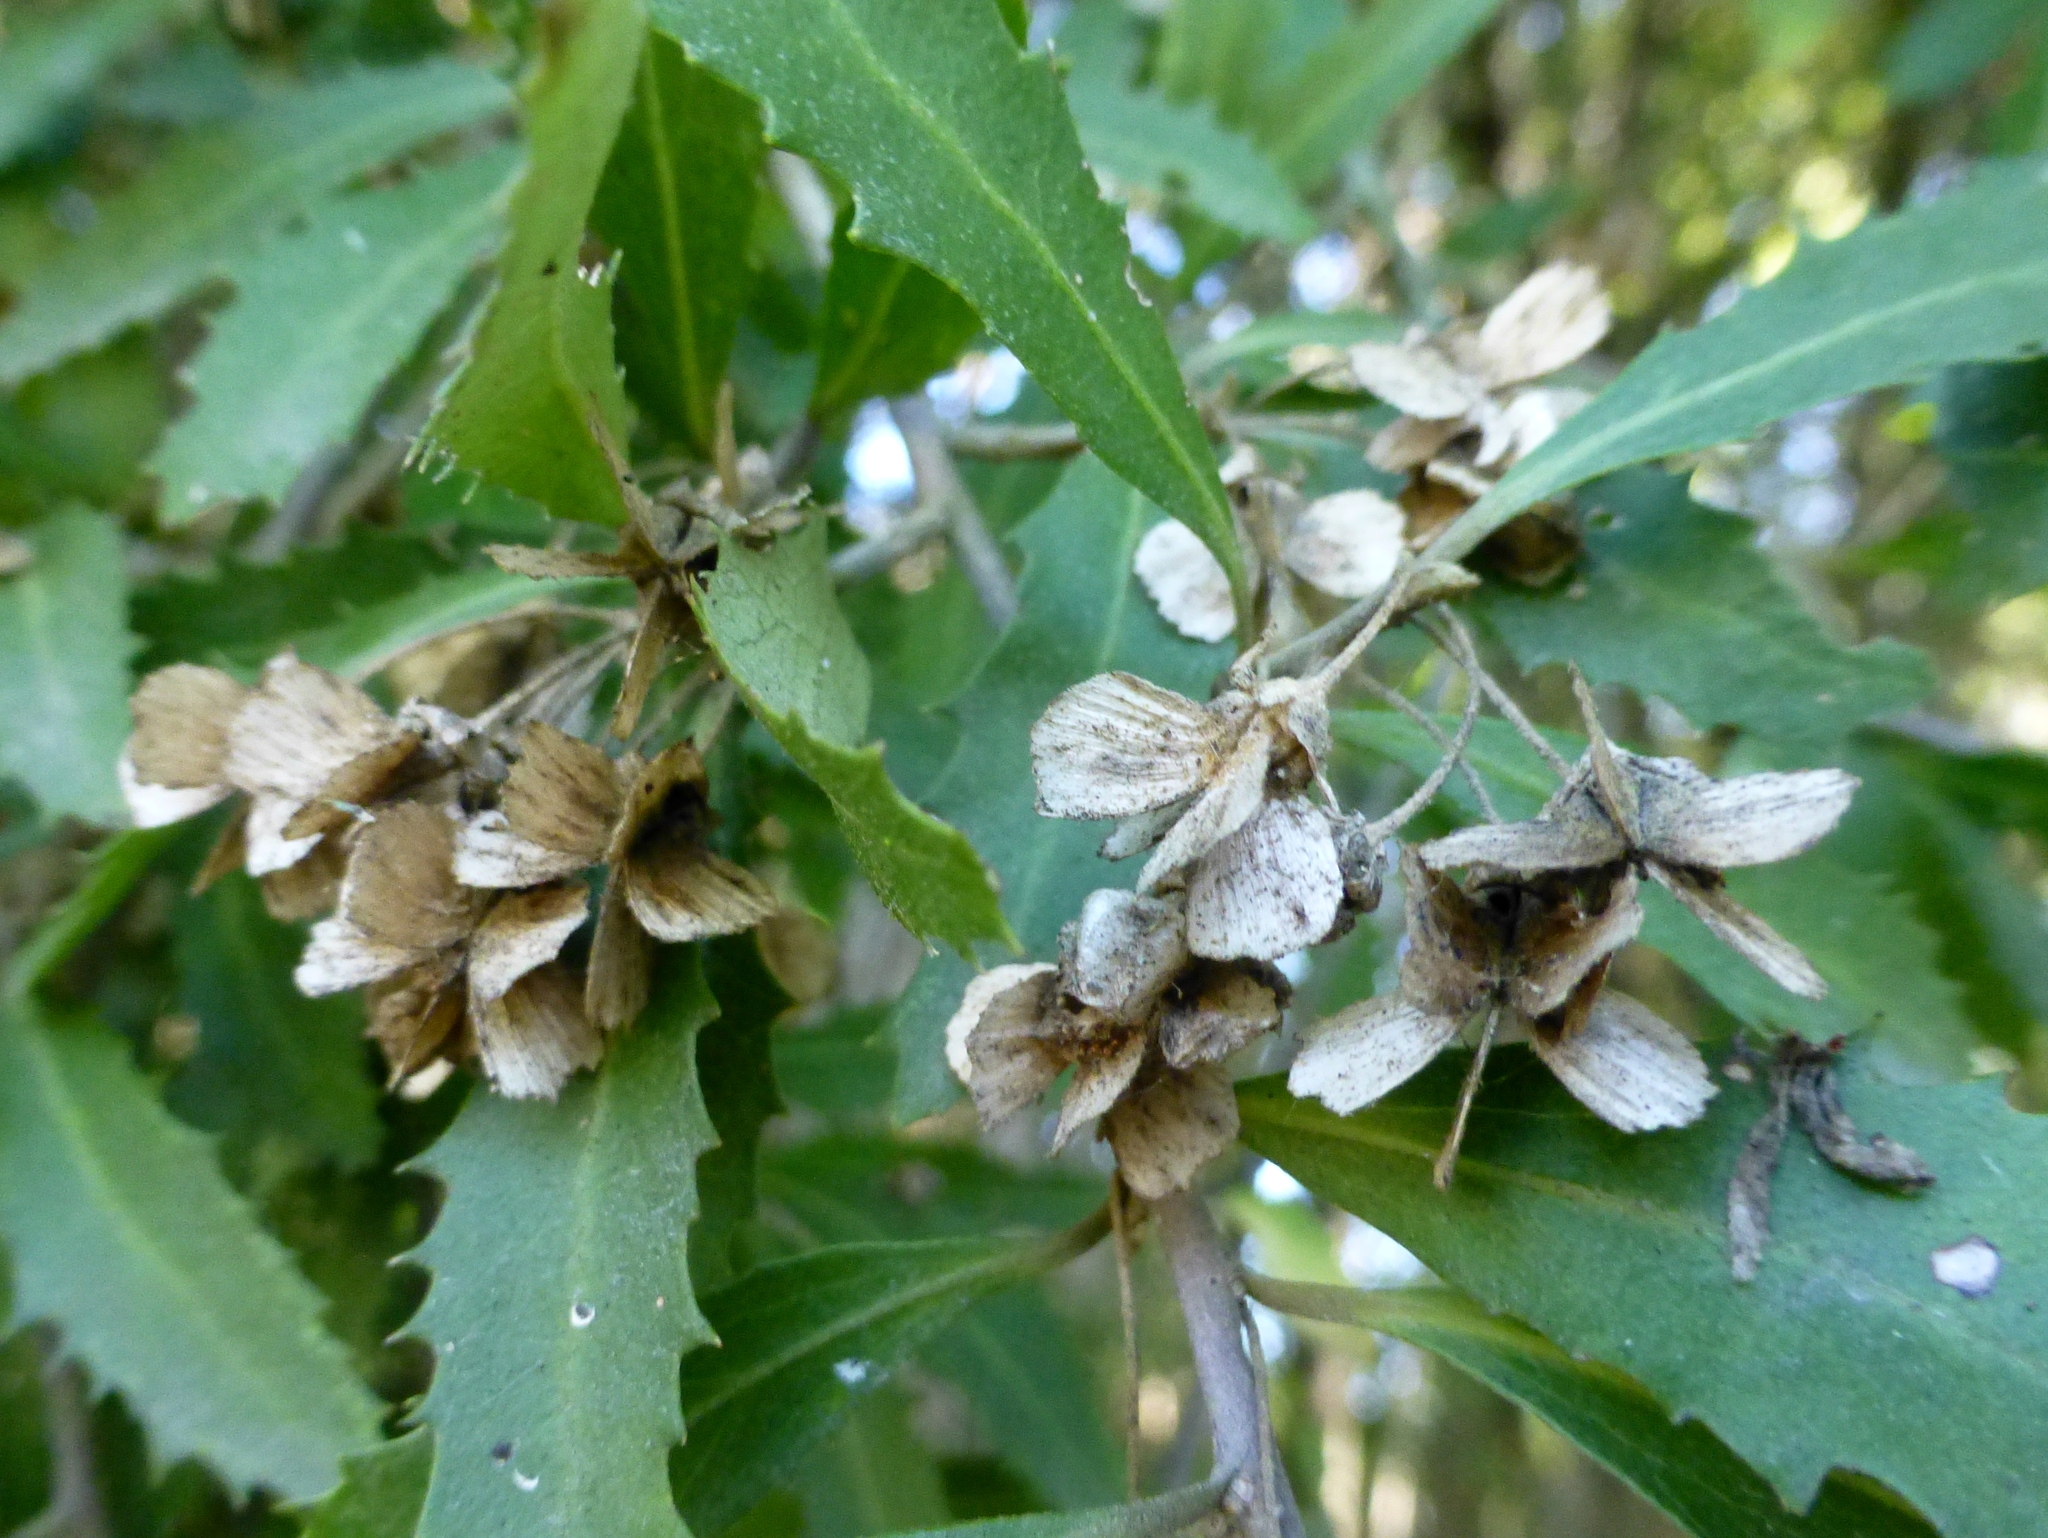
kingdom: Plantae
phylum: Tracheophyta
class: Magnoliopsida
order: Malvales
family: Malvaceae
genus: Hoheria
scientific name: Hoheria angustifolia
